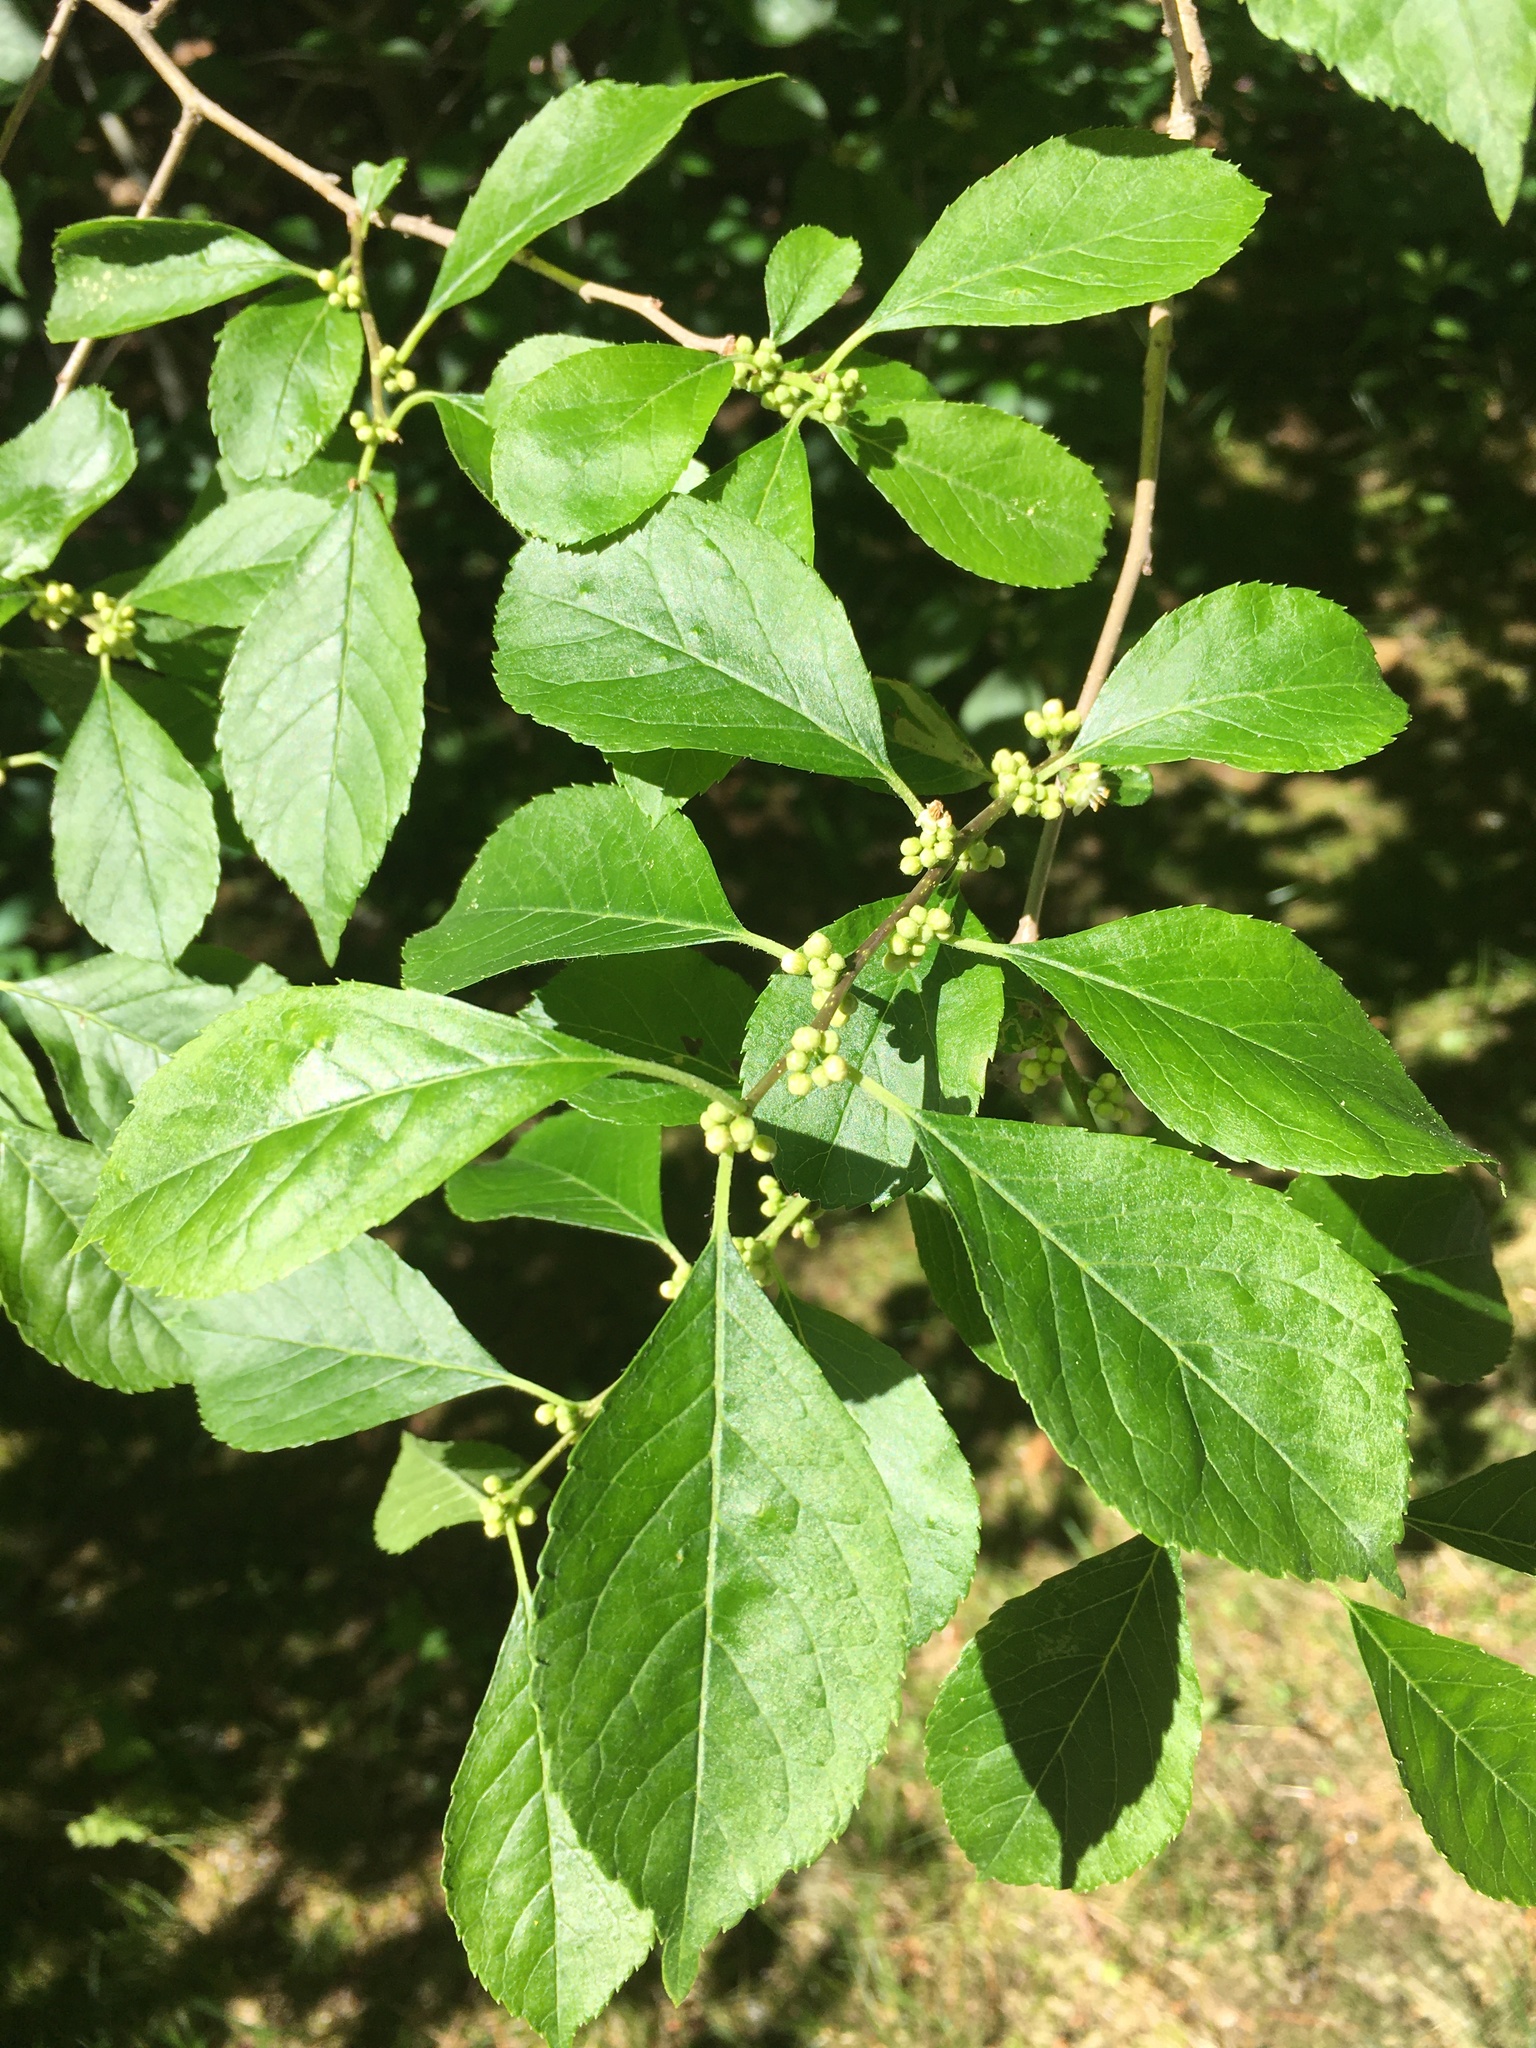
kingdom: Plantae
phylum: Tracheophyta
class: Magnoliopsida
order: Celastrales
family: Celastraceae
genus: Celastrus
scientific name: Celastrus orbiculatus
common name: Oriental bittersweet
